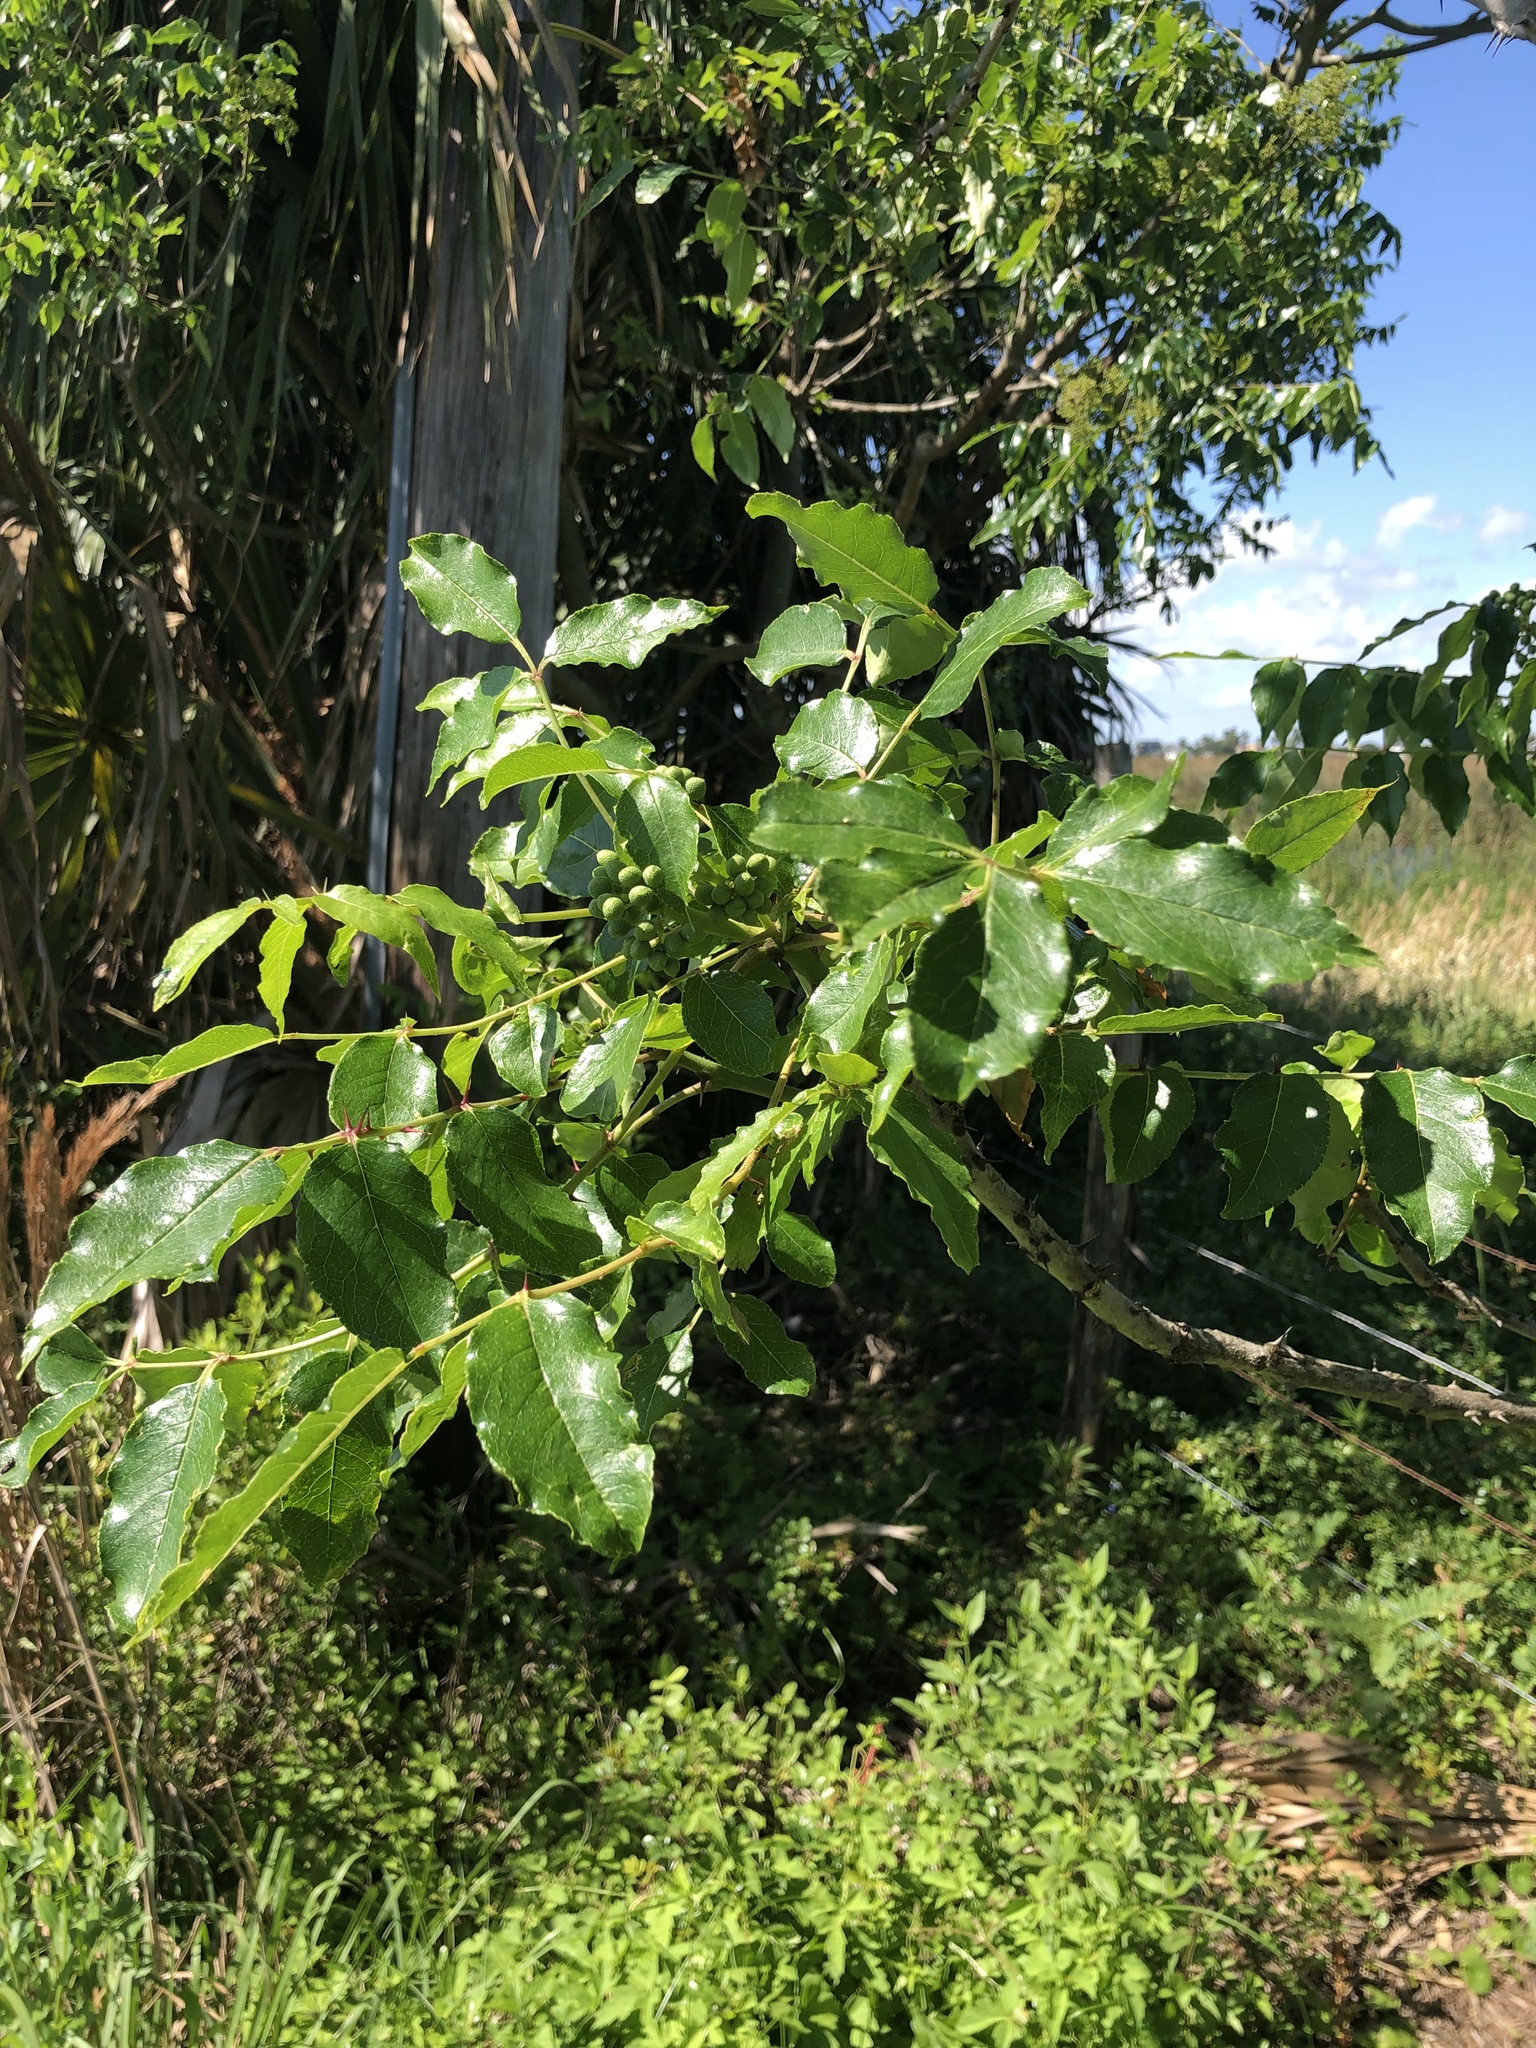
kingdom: Plantae
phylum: Tracheophyta
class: Magnoliopsida
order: Sapindales
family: Rutaceae
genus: Zanthoxylum
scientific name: Zanthoxylum clava-herculis
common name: Hercules'-club
